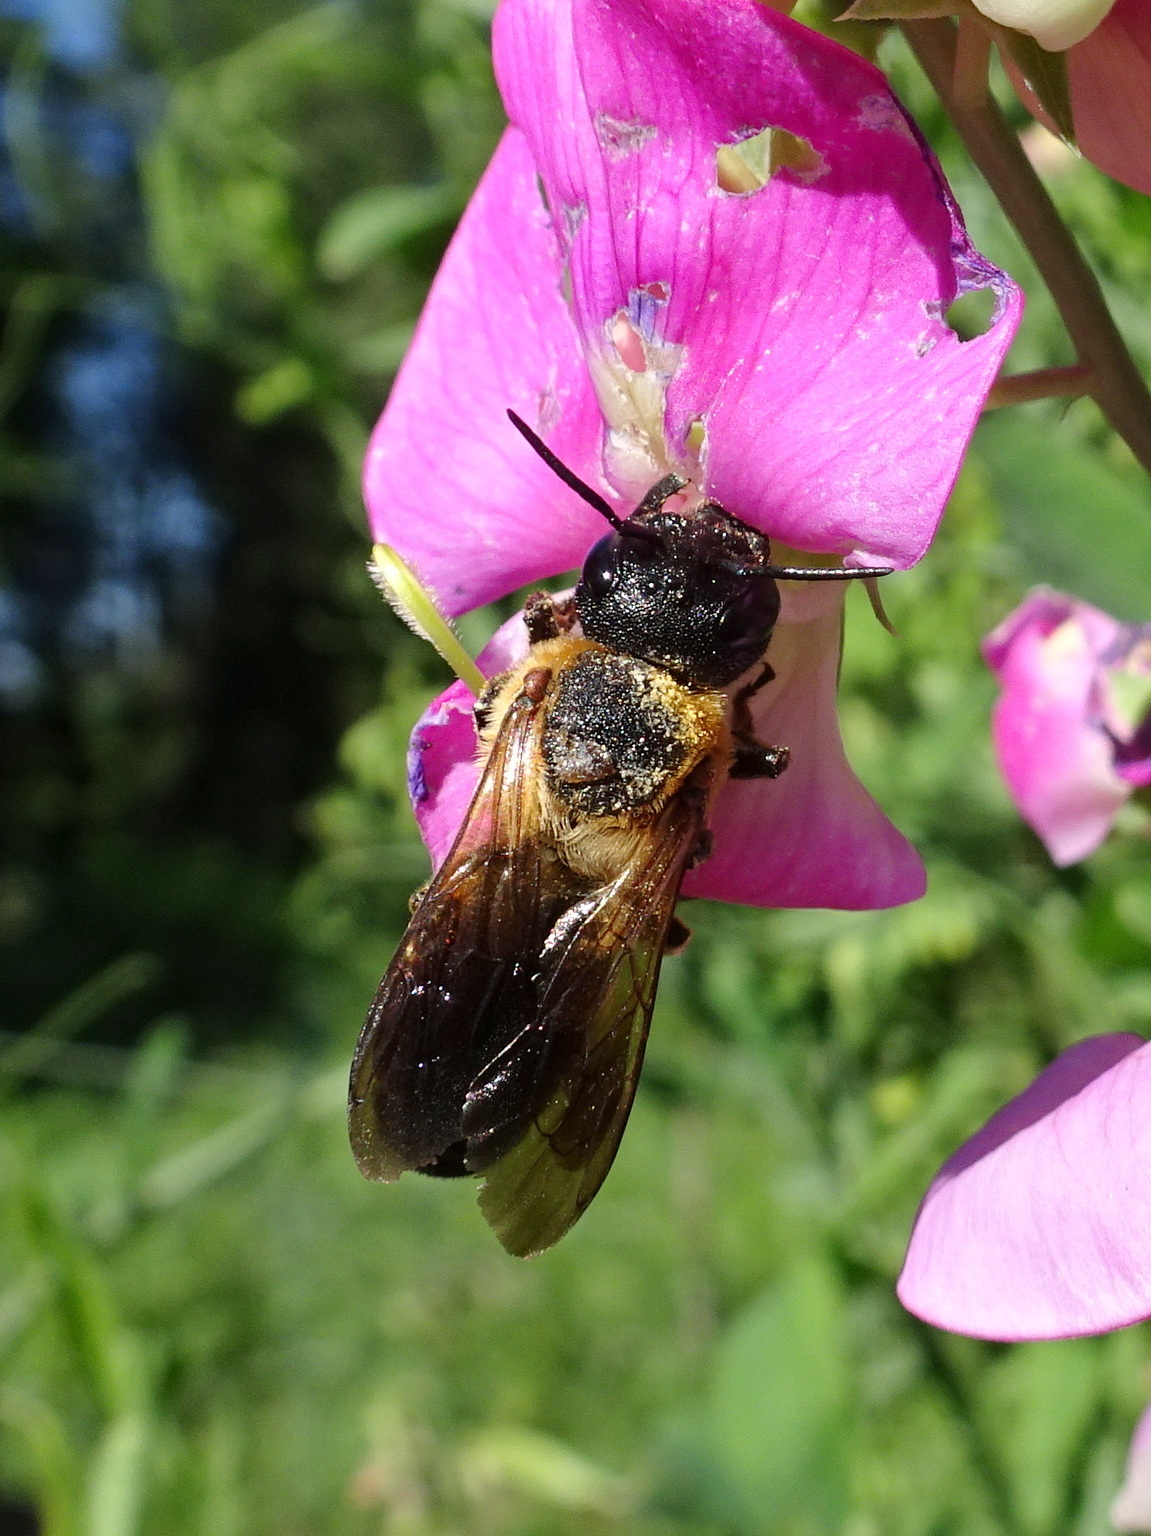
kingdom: Animalia
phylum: Arthropoda
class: Insecta
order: Hymenoptera
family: Megachilidae
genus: Megachile
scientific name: Megachile sculpturalis
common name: Sculptured resin bee
